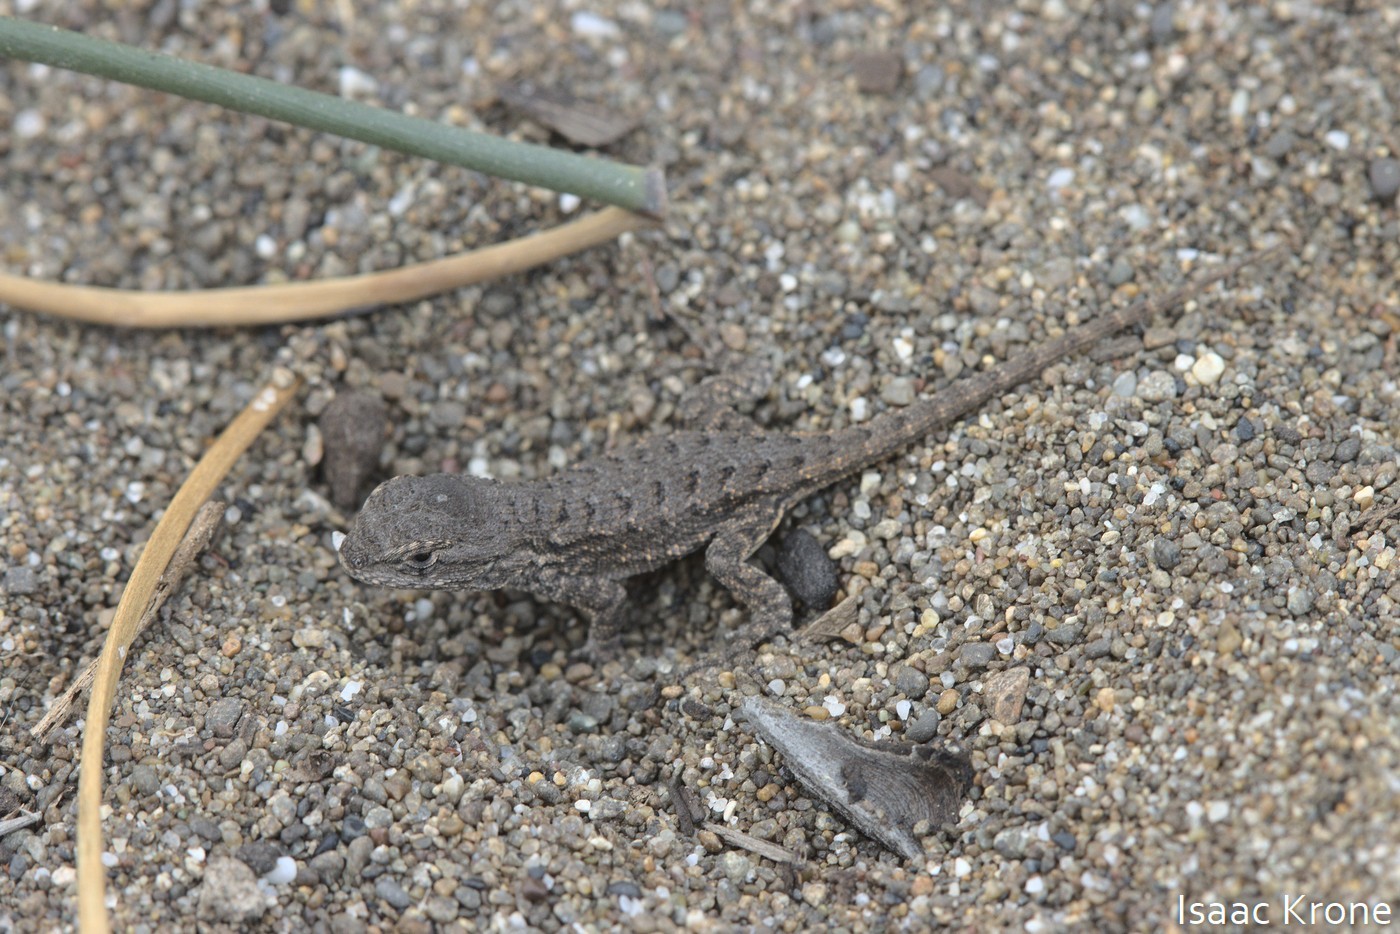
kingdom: Animalia
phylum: Chordata
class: Squamata
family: Phrynosomatidae
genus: Sceloporus
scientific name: Sceloporus occidentalis
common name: Western fence lizard
